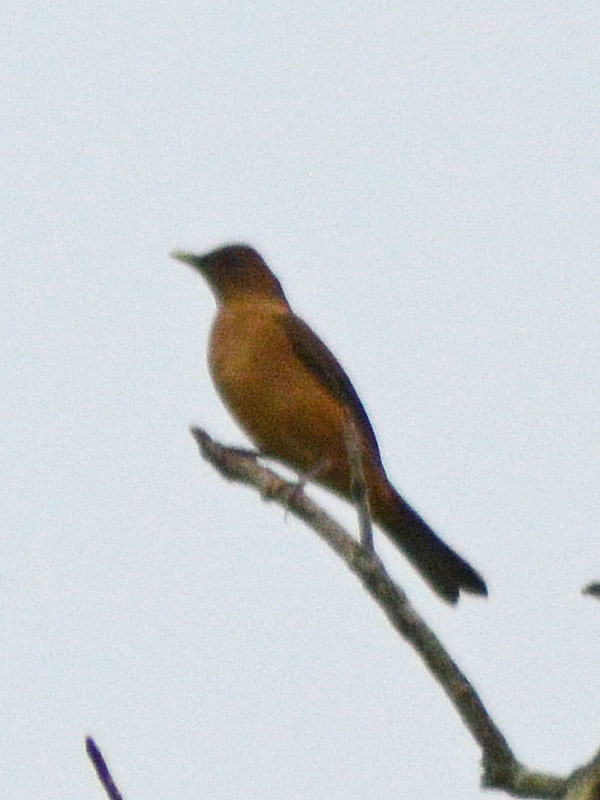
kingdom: Animalia
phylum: Chordata
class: Aves
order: Passeriformes
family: Turdidae
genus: Turdus
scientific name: Turdus grayi
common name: Clay-colored thrush
